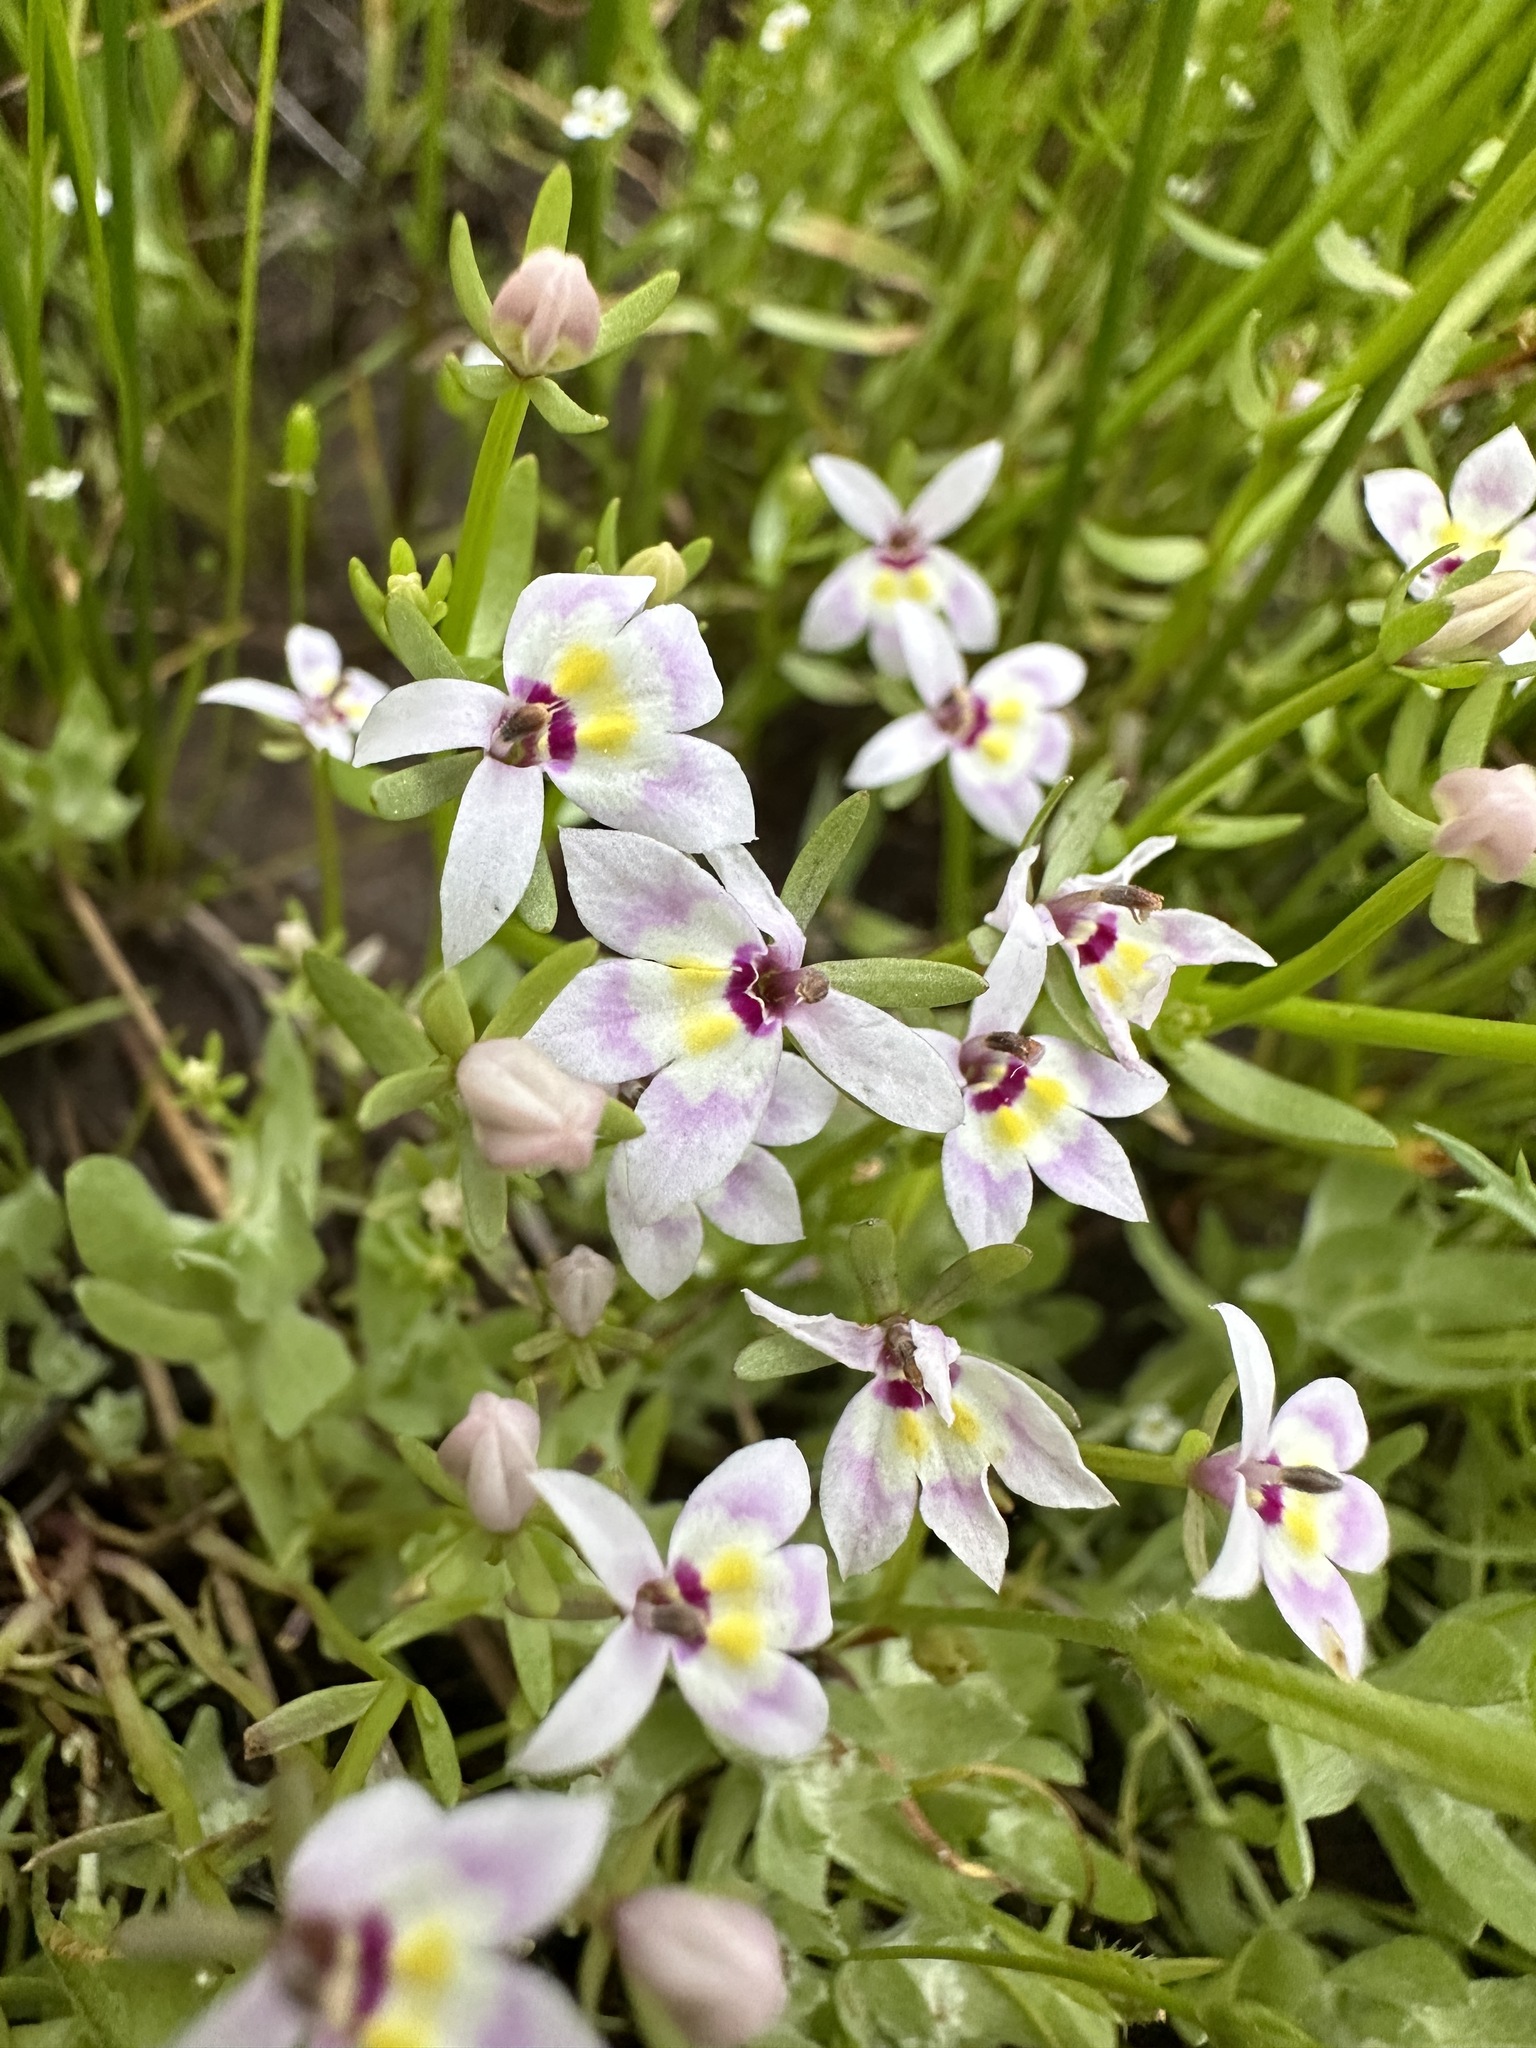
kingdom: Plantae
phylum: Tracheophyta
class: Magnoliopsida
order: Asterales
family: Campanulaceae
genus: Downingia
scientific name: Downingia laeta
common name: Great basin calicoflower
